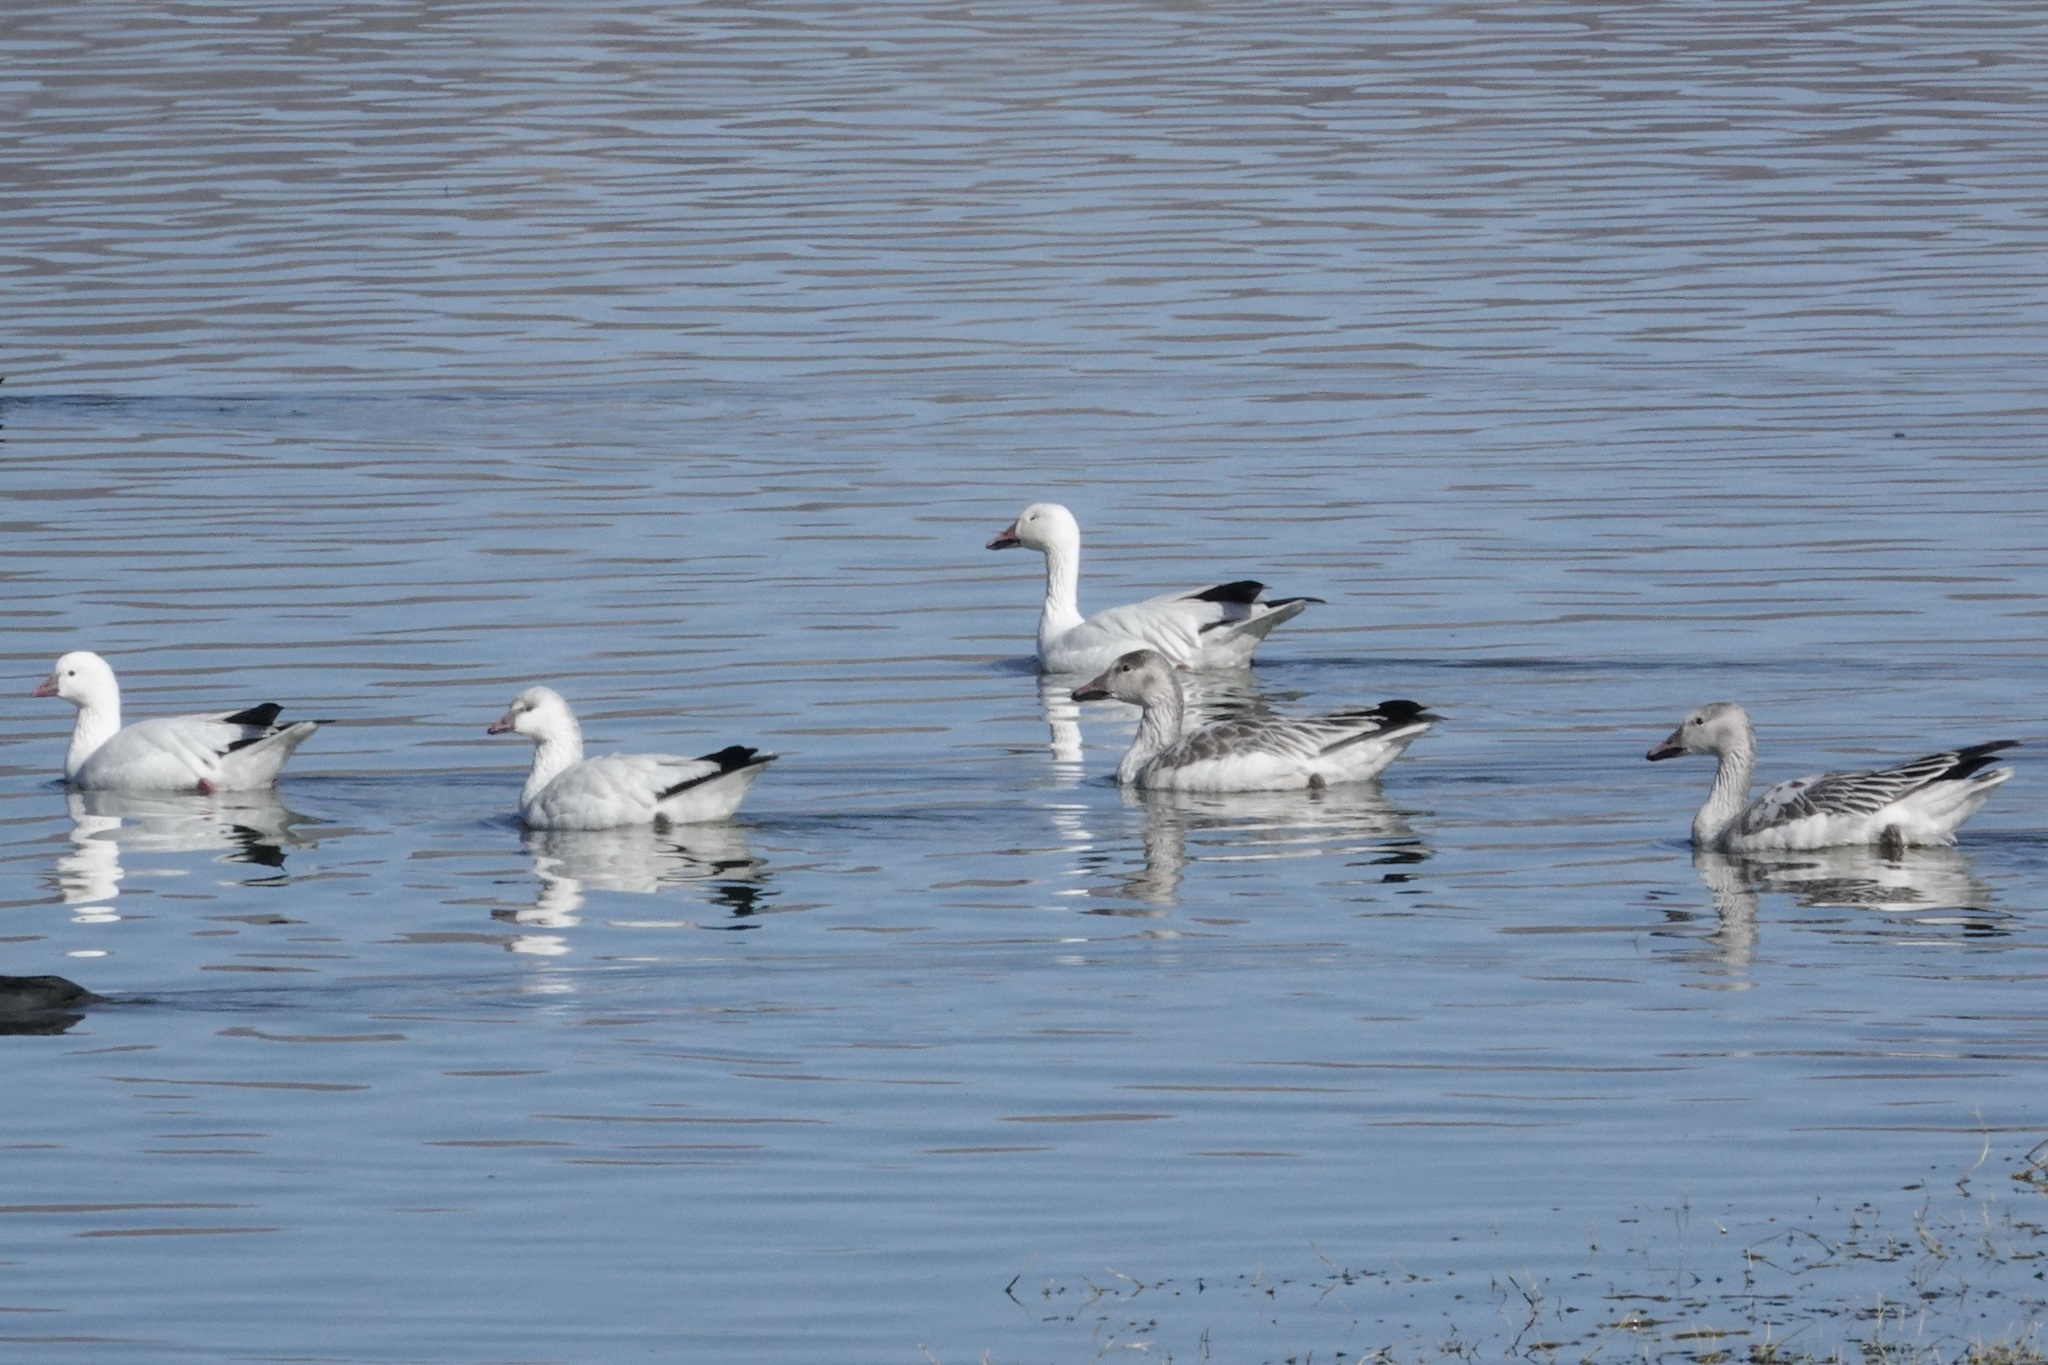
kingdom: Animalia
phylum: Chordata
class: Aves
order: Anseriformes
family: Anatidae
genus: Anser
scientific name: Anser rossii
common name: Ross's goose
